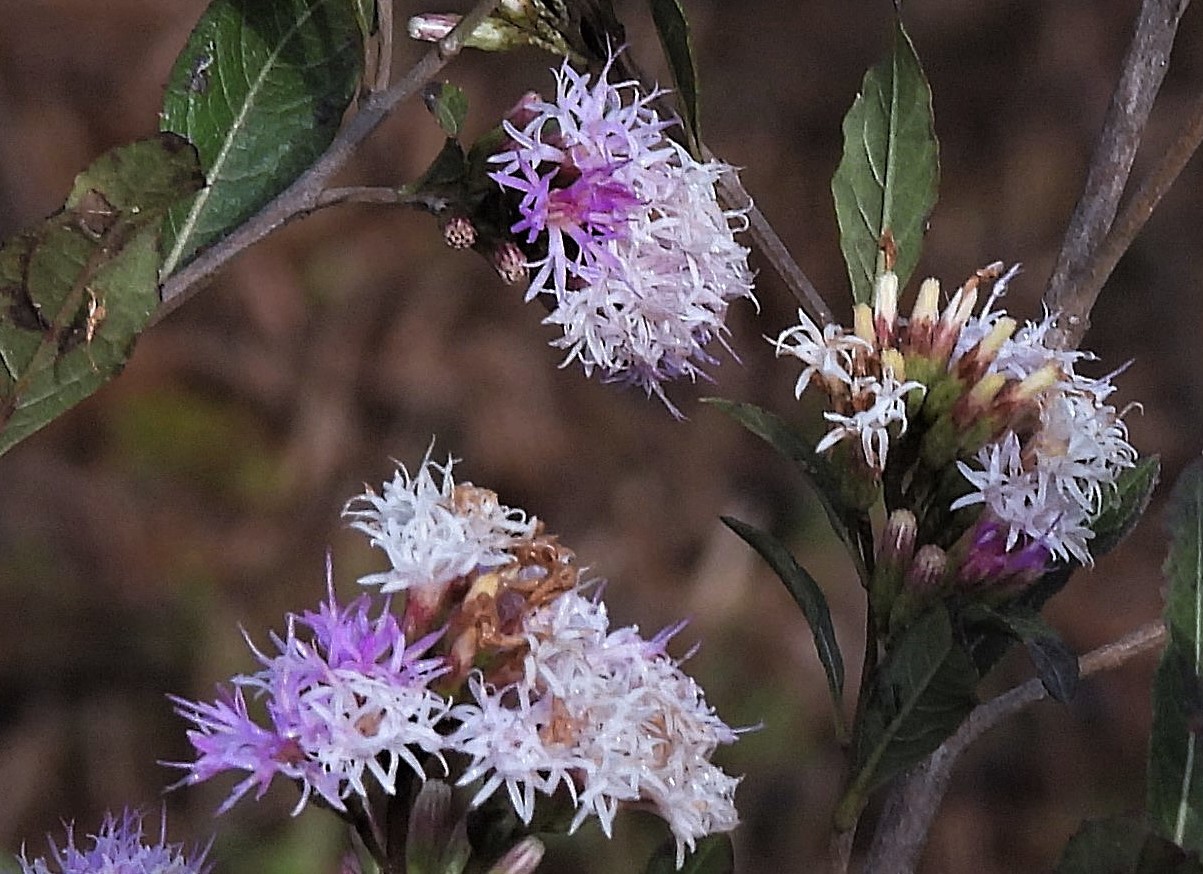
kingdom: Plantae
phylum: Tracheophyta
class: Magnoliopsida
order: Asterales
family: Asteraceae
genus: Vernonanthura
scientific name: Vernonanthura squamulosa
